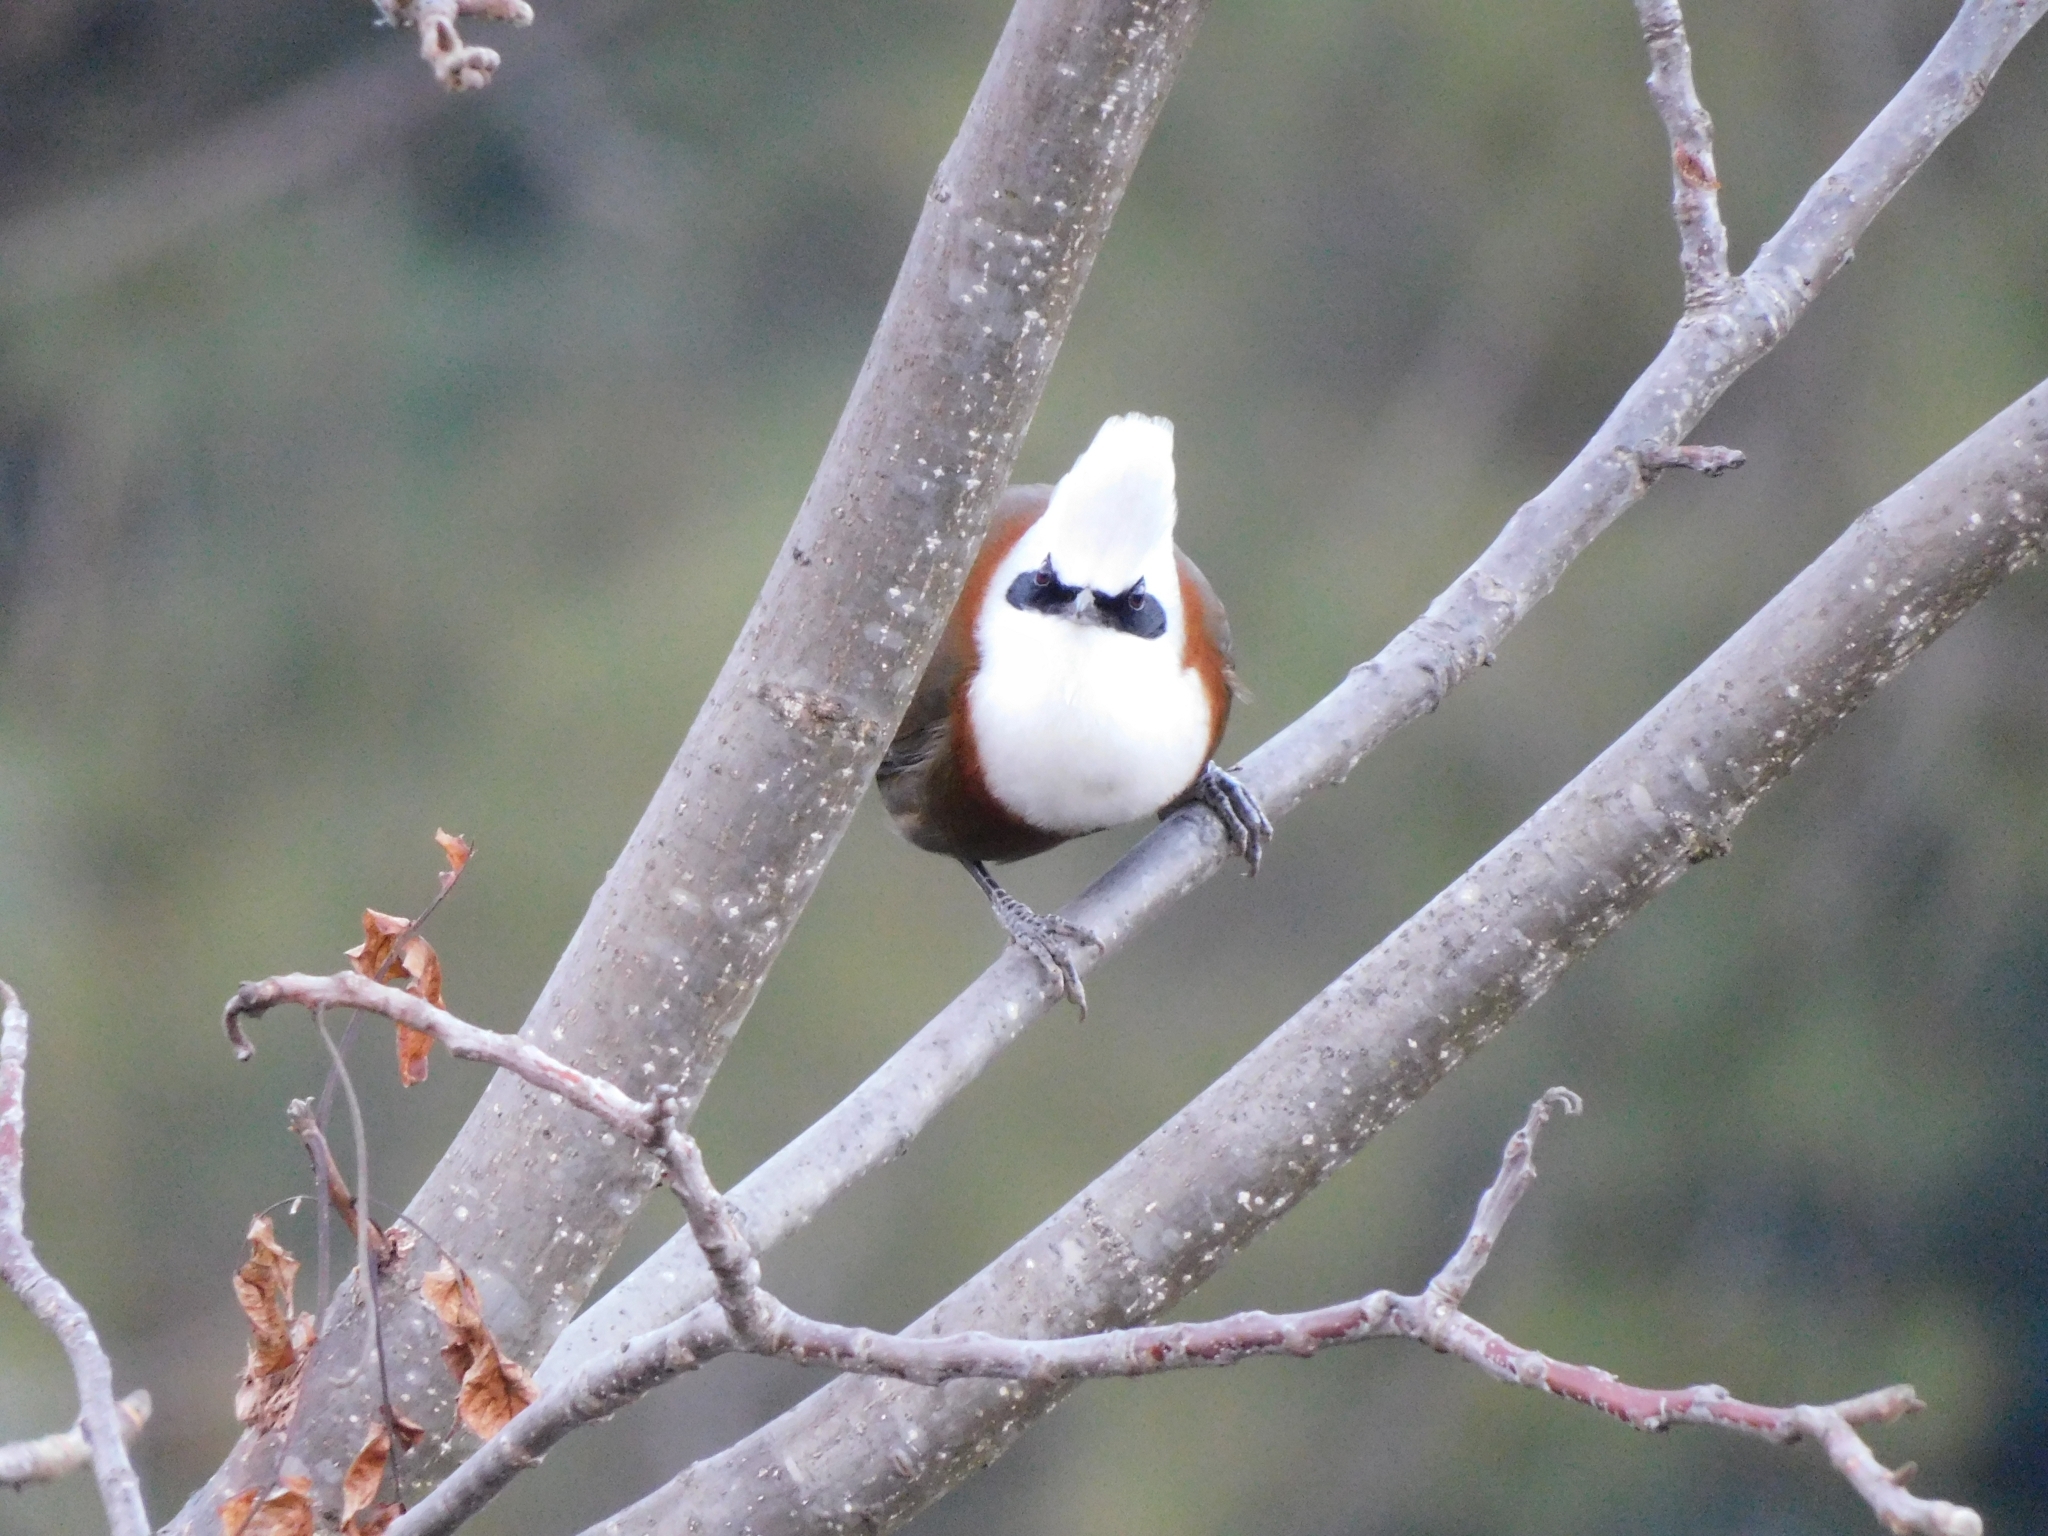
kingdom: Animalia
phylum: Chordata
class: Aves
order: Passeriformes
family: Leiothrichidae
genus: Garrulax
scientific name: Garrulax leucolophus
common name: White-crested laughingthrush
